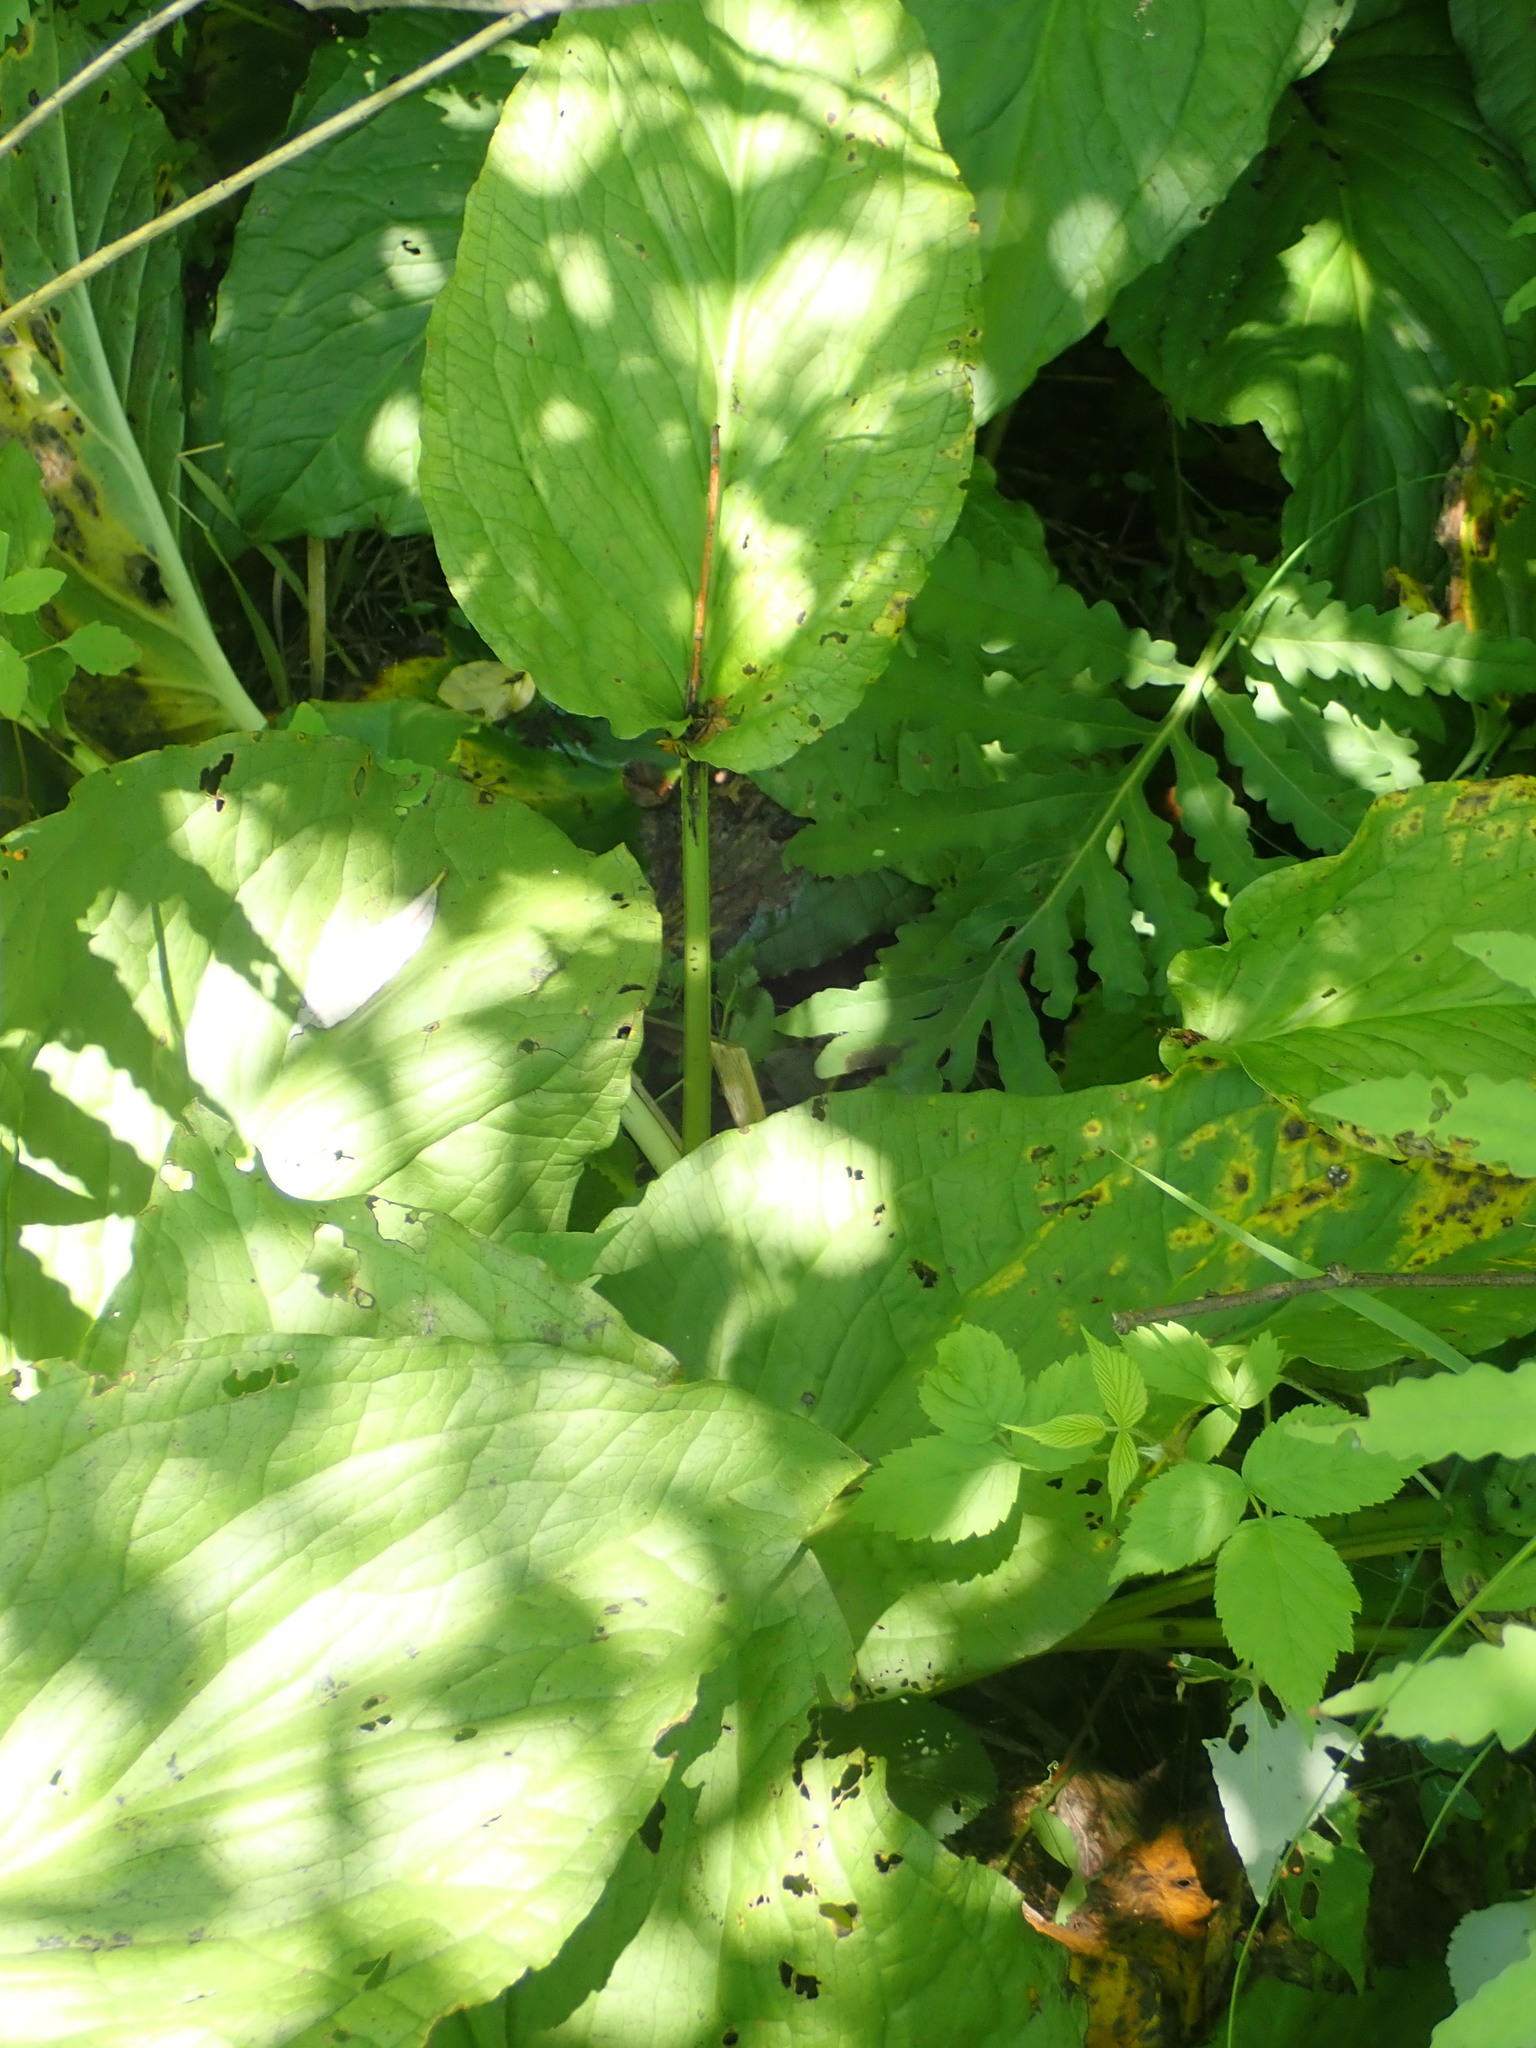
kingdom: Plantae
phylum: Tracheophyta
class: Liliopsida
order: Alismatales
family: Araceae
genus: Symplocarpus
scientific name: Symplocarpus foetidus
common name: Eastern skunk cabbage
